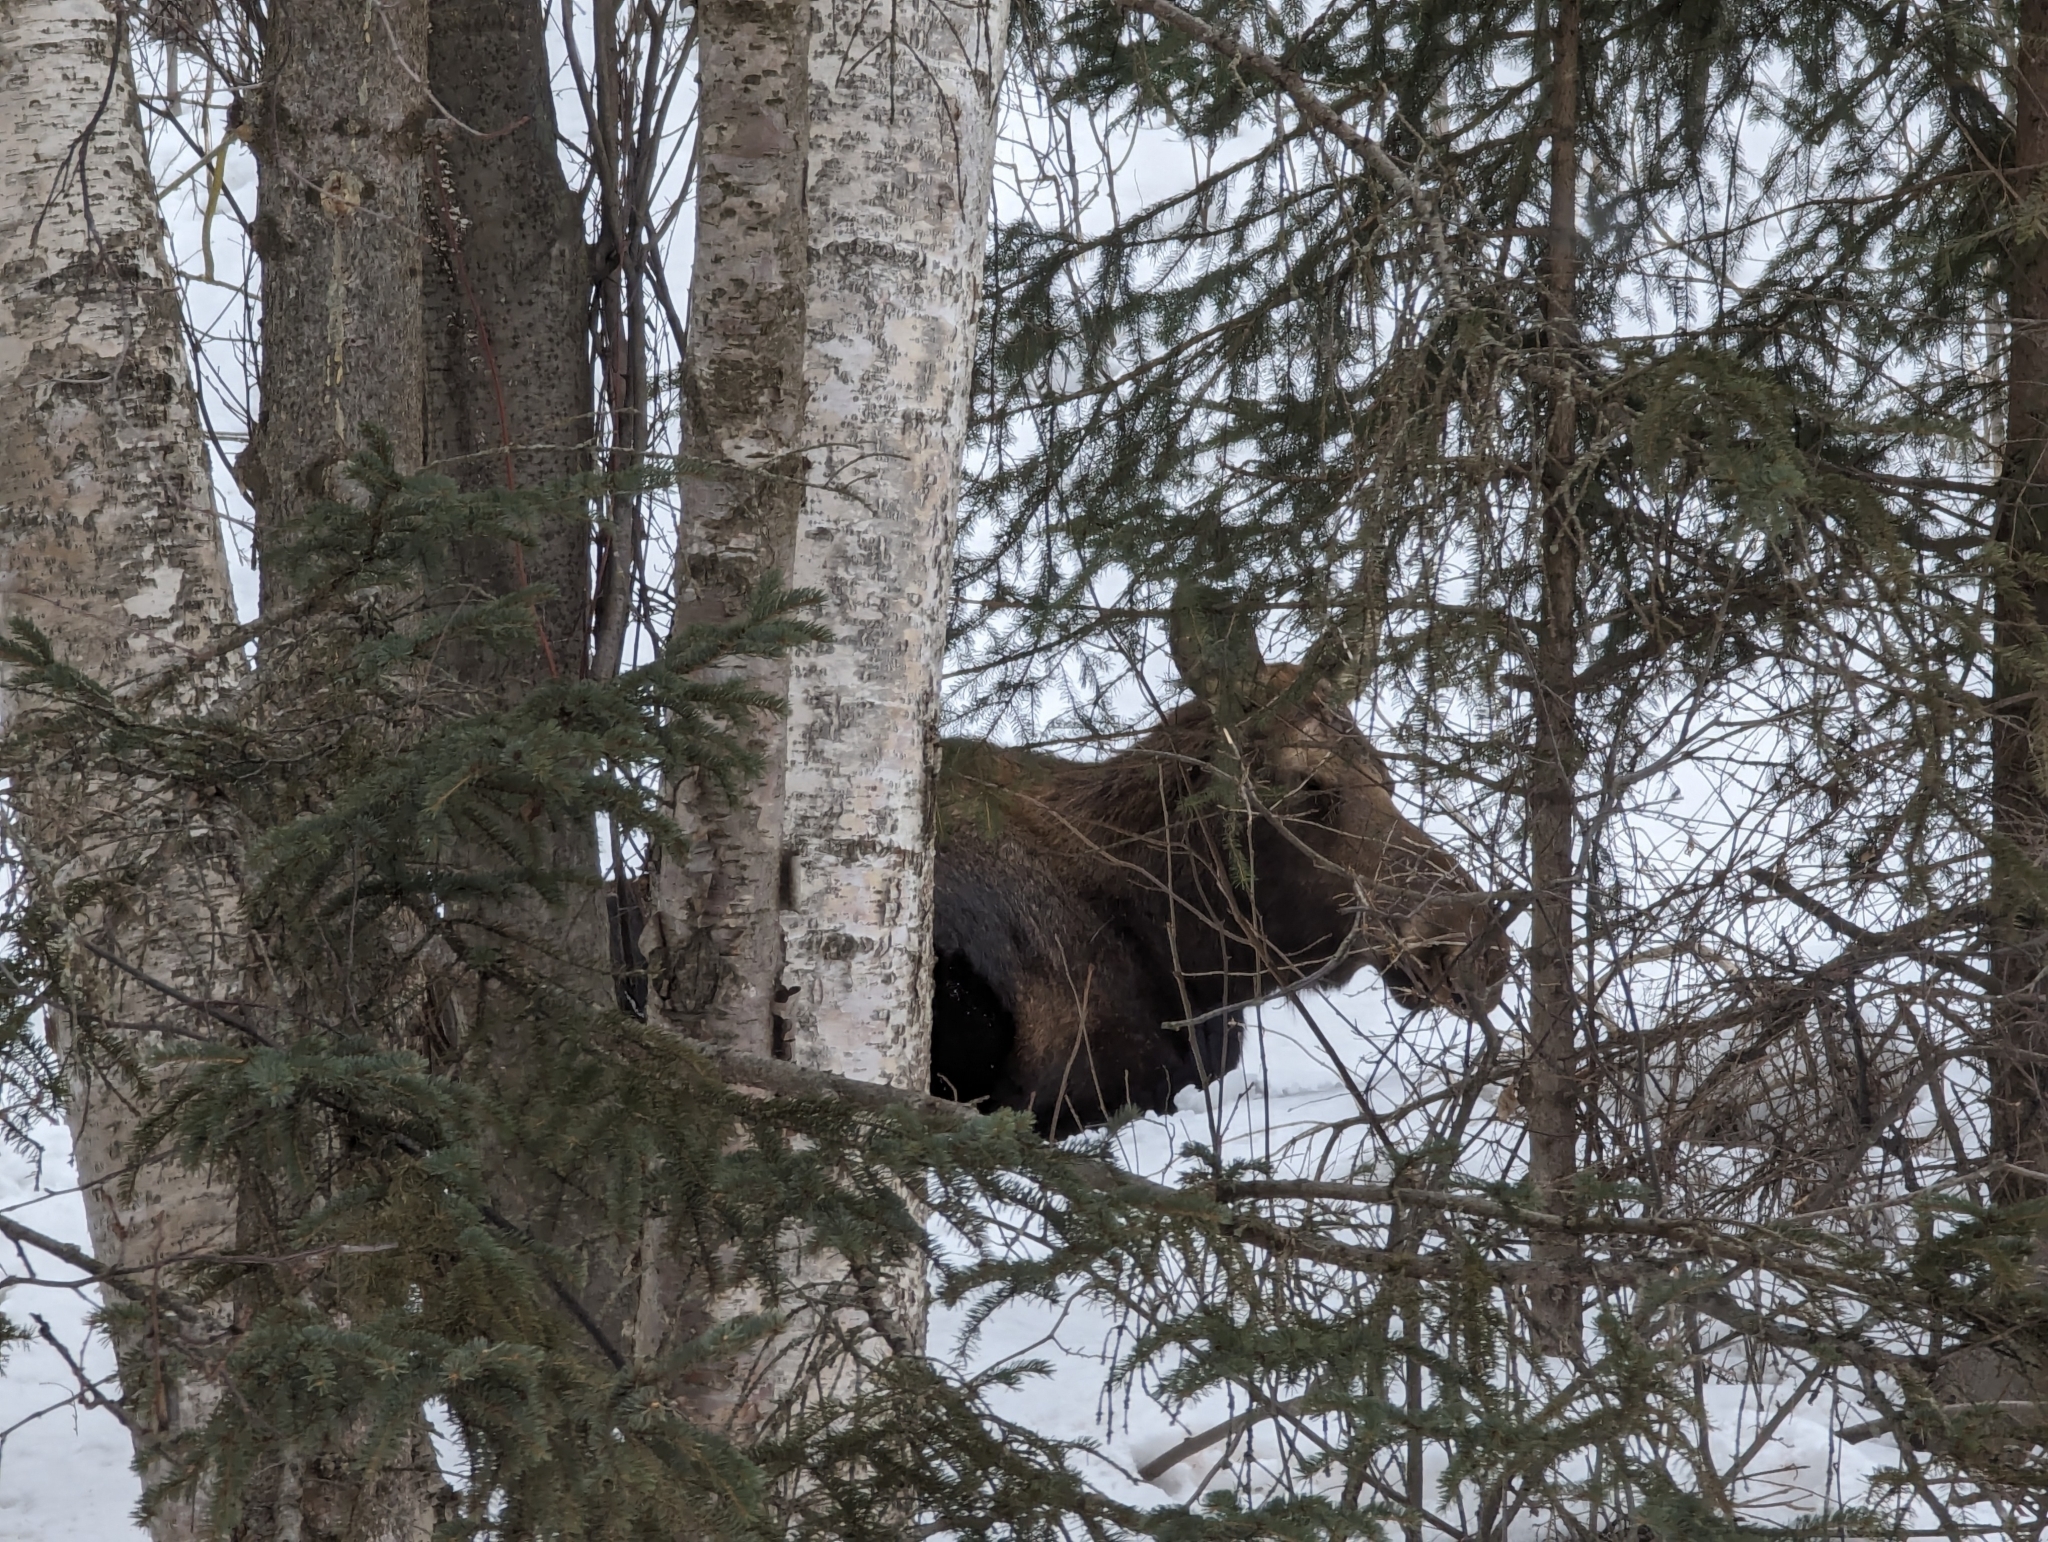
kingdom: Animalia
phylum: Chordata
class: Mammalia
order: Artiodactyla
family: Cervidae
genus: Alces
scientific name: Alces alces
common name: Moose
